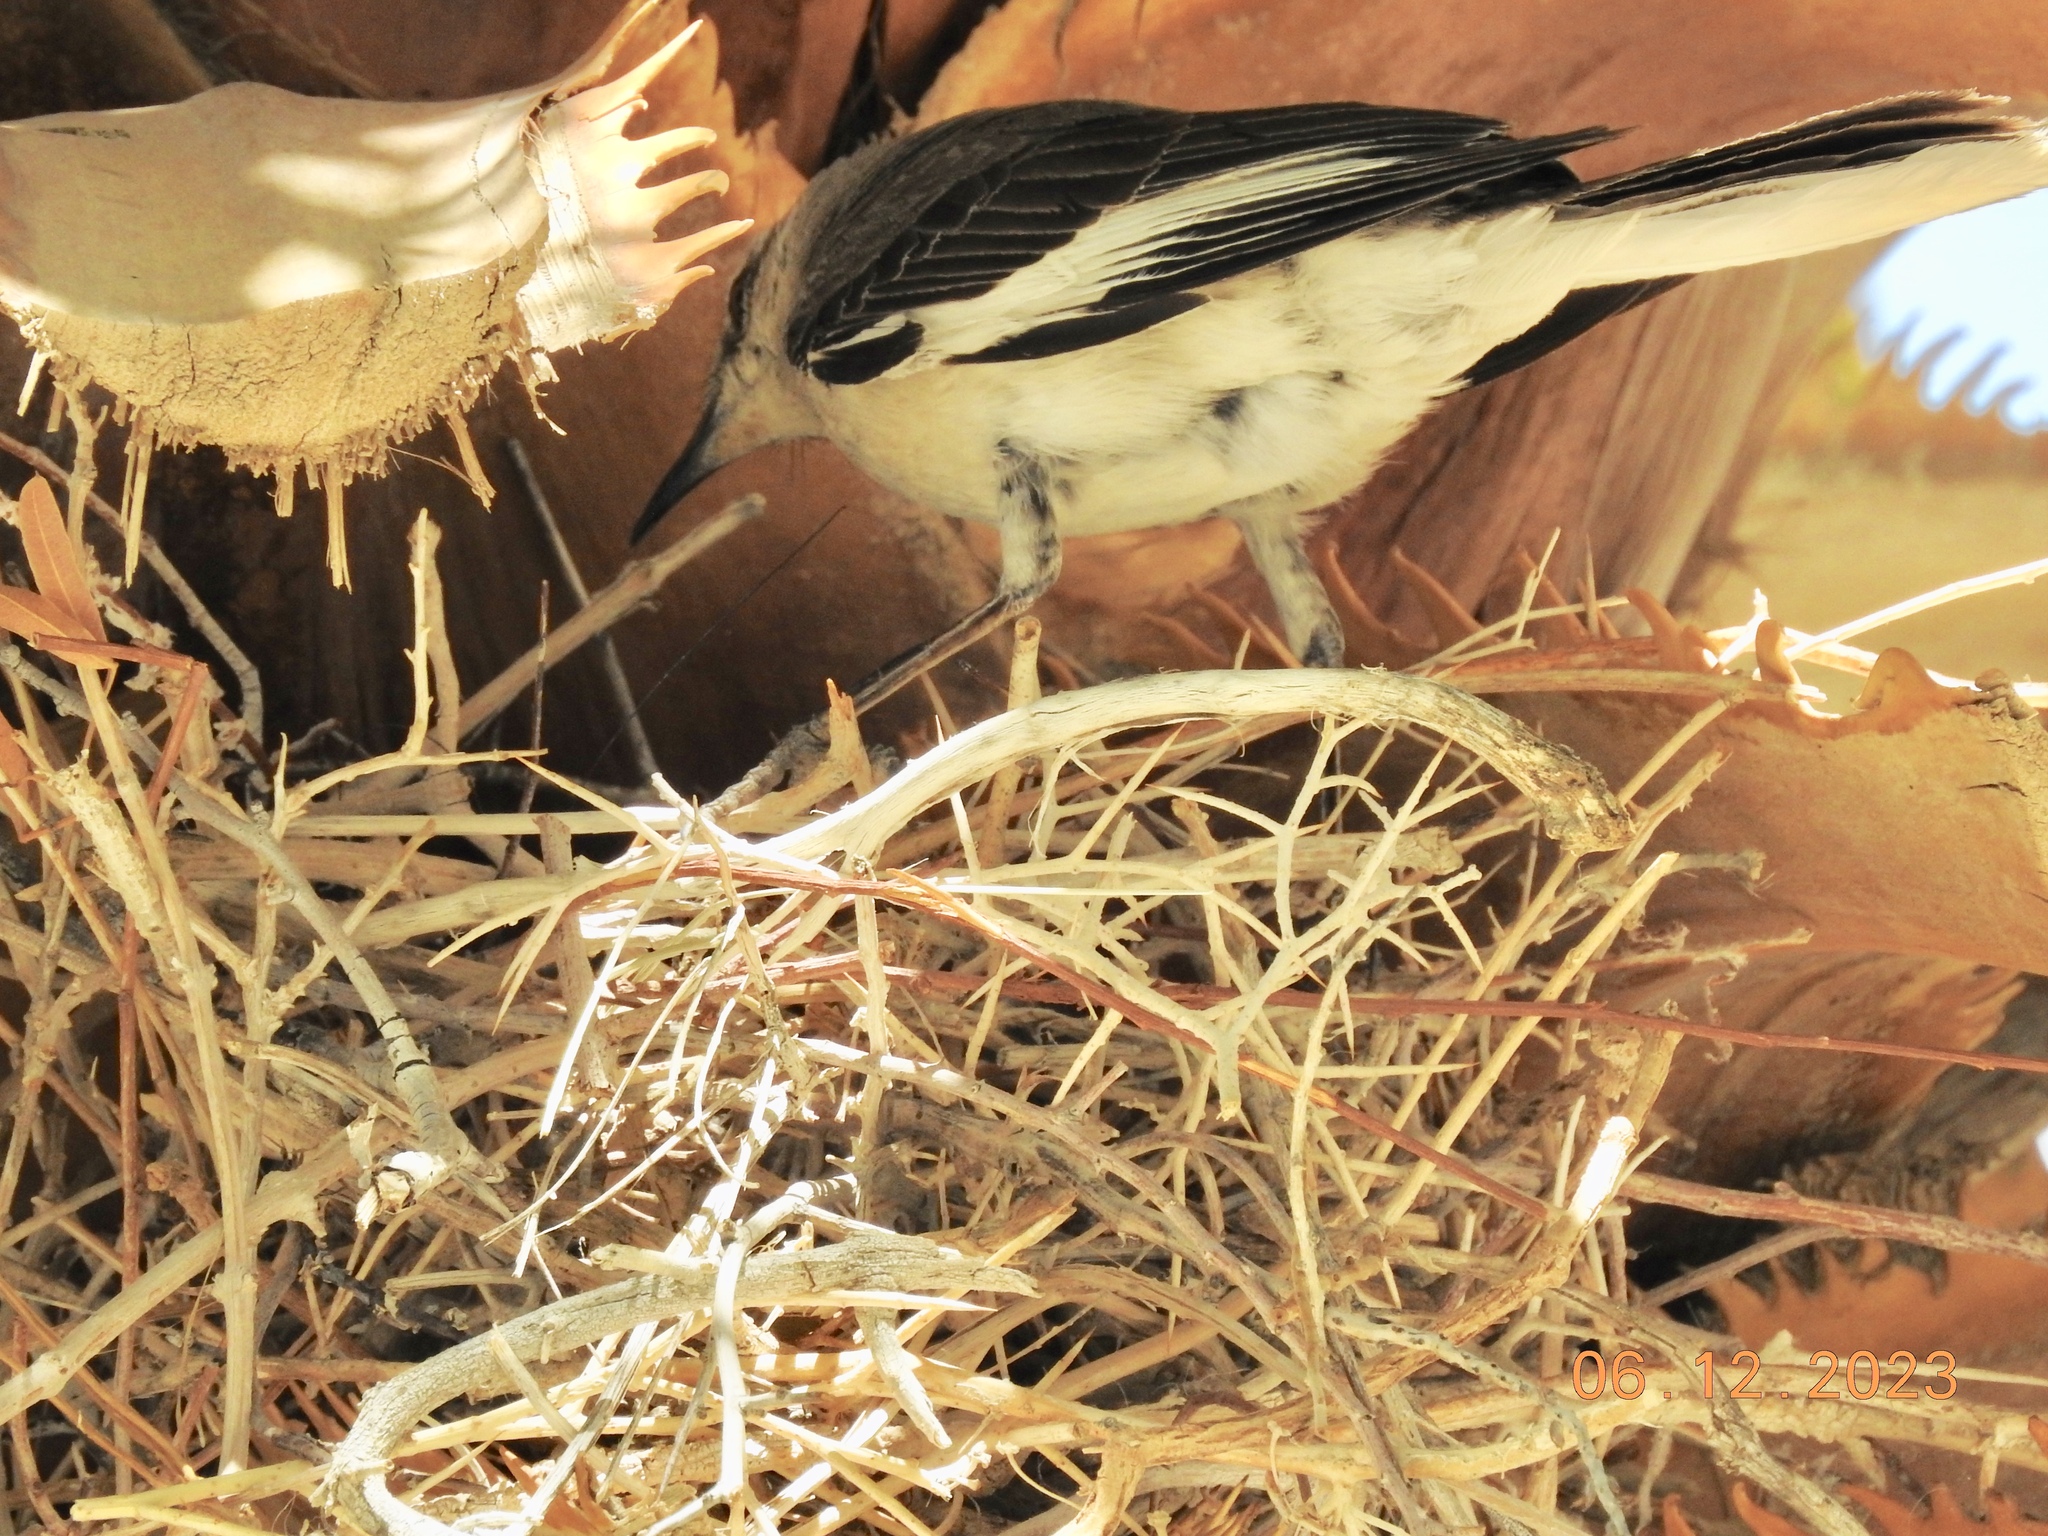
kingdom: Animalia
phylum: Chordata
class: Aves
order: Passeriformes
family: Mimidae
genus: Mimus
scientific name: Mimus polyglottos
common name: Northern mockingbird
